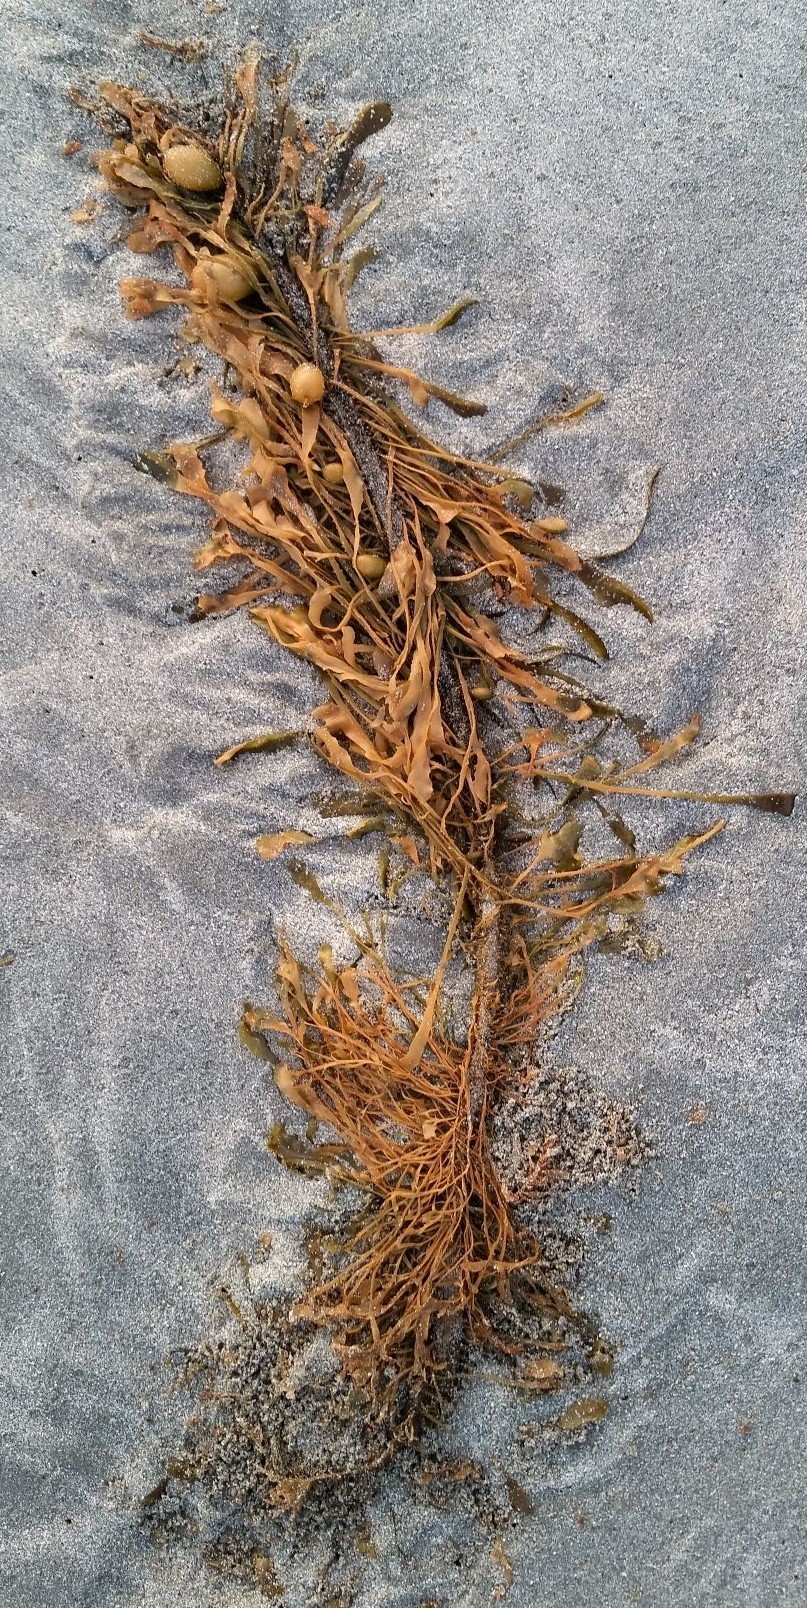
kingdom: Chromista
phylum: Ochrophyta
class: Phaeophyceae
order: Laminariales
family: Lessoniaceae
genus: Egregia
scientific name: Egregia menziesii
